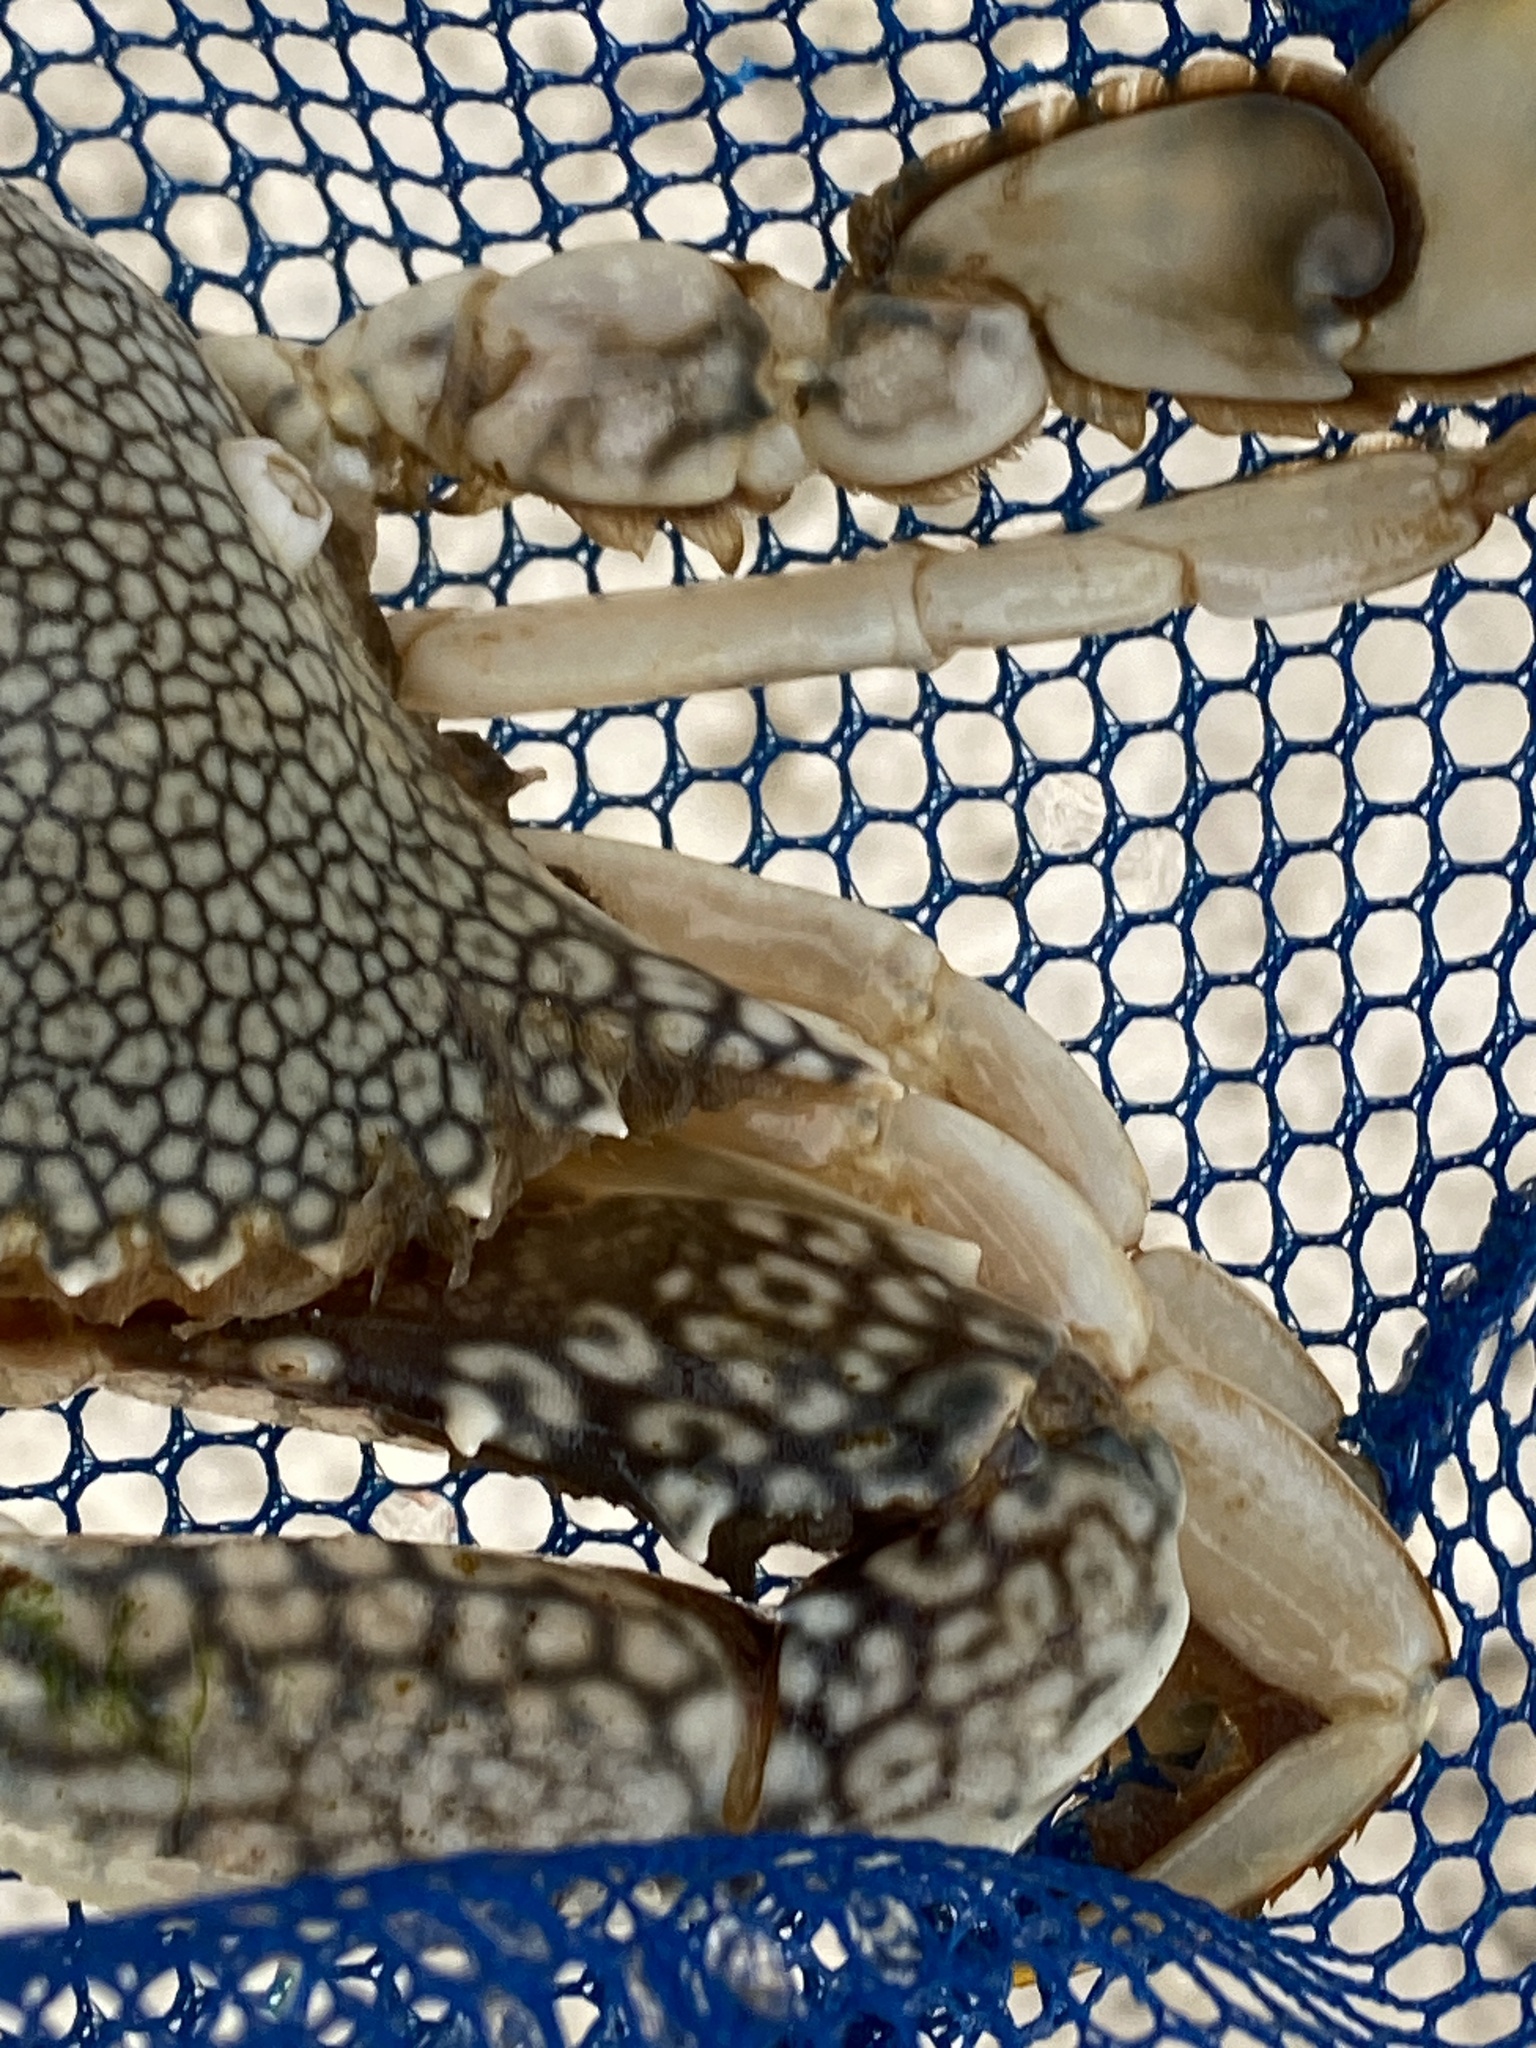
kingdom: Animalia
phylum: Arthropoda
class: Malacostraca
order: Decapoda
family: Portunidae
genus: Arenaeus
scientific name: Arenaeus cribrarius
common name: Speckled crab
